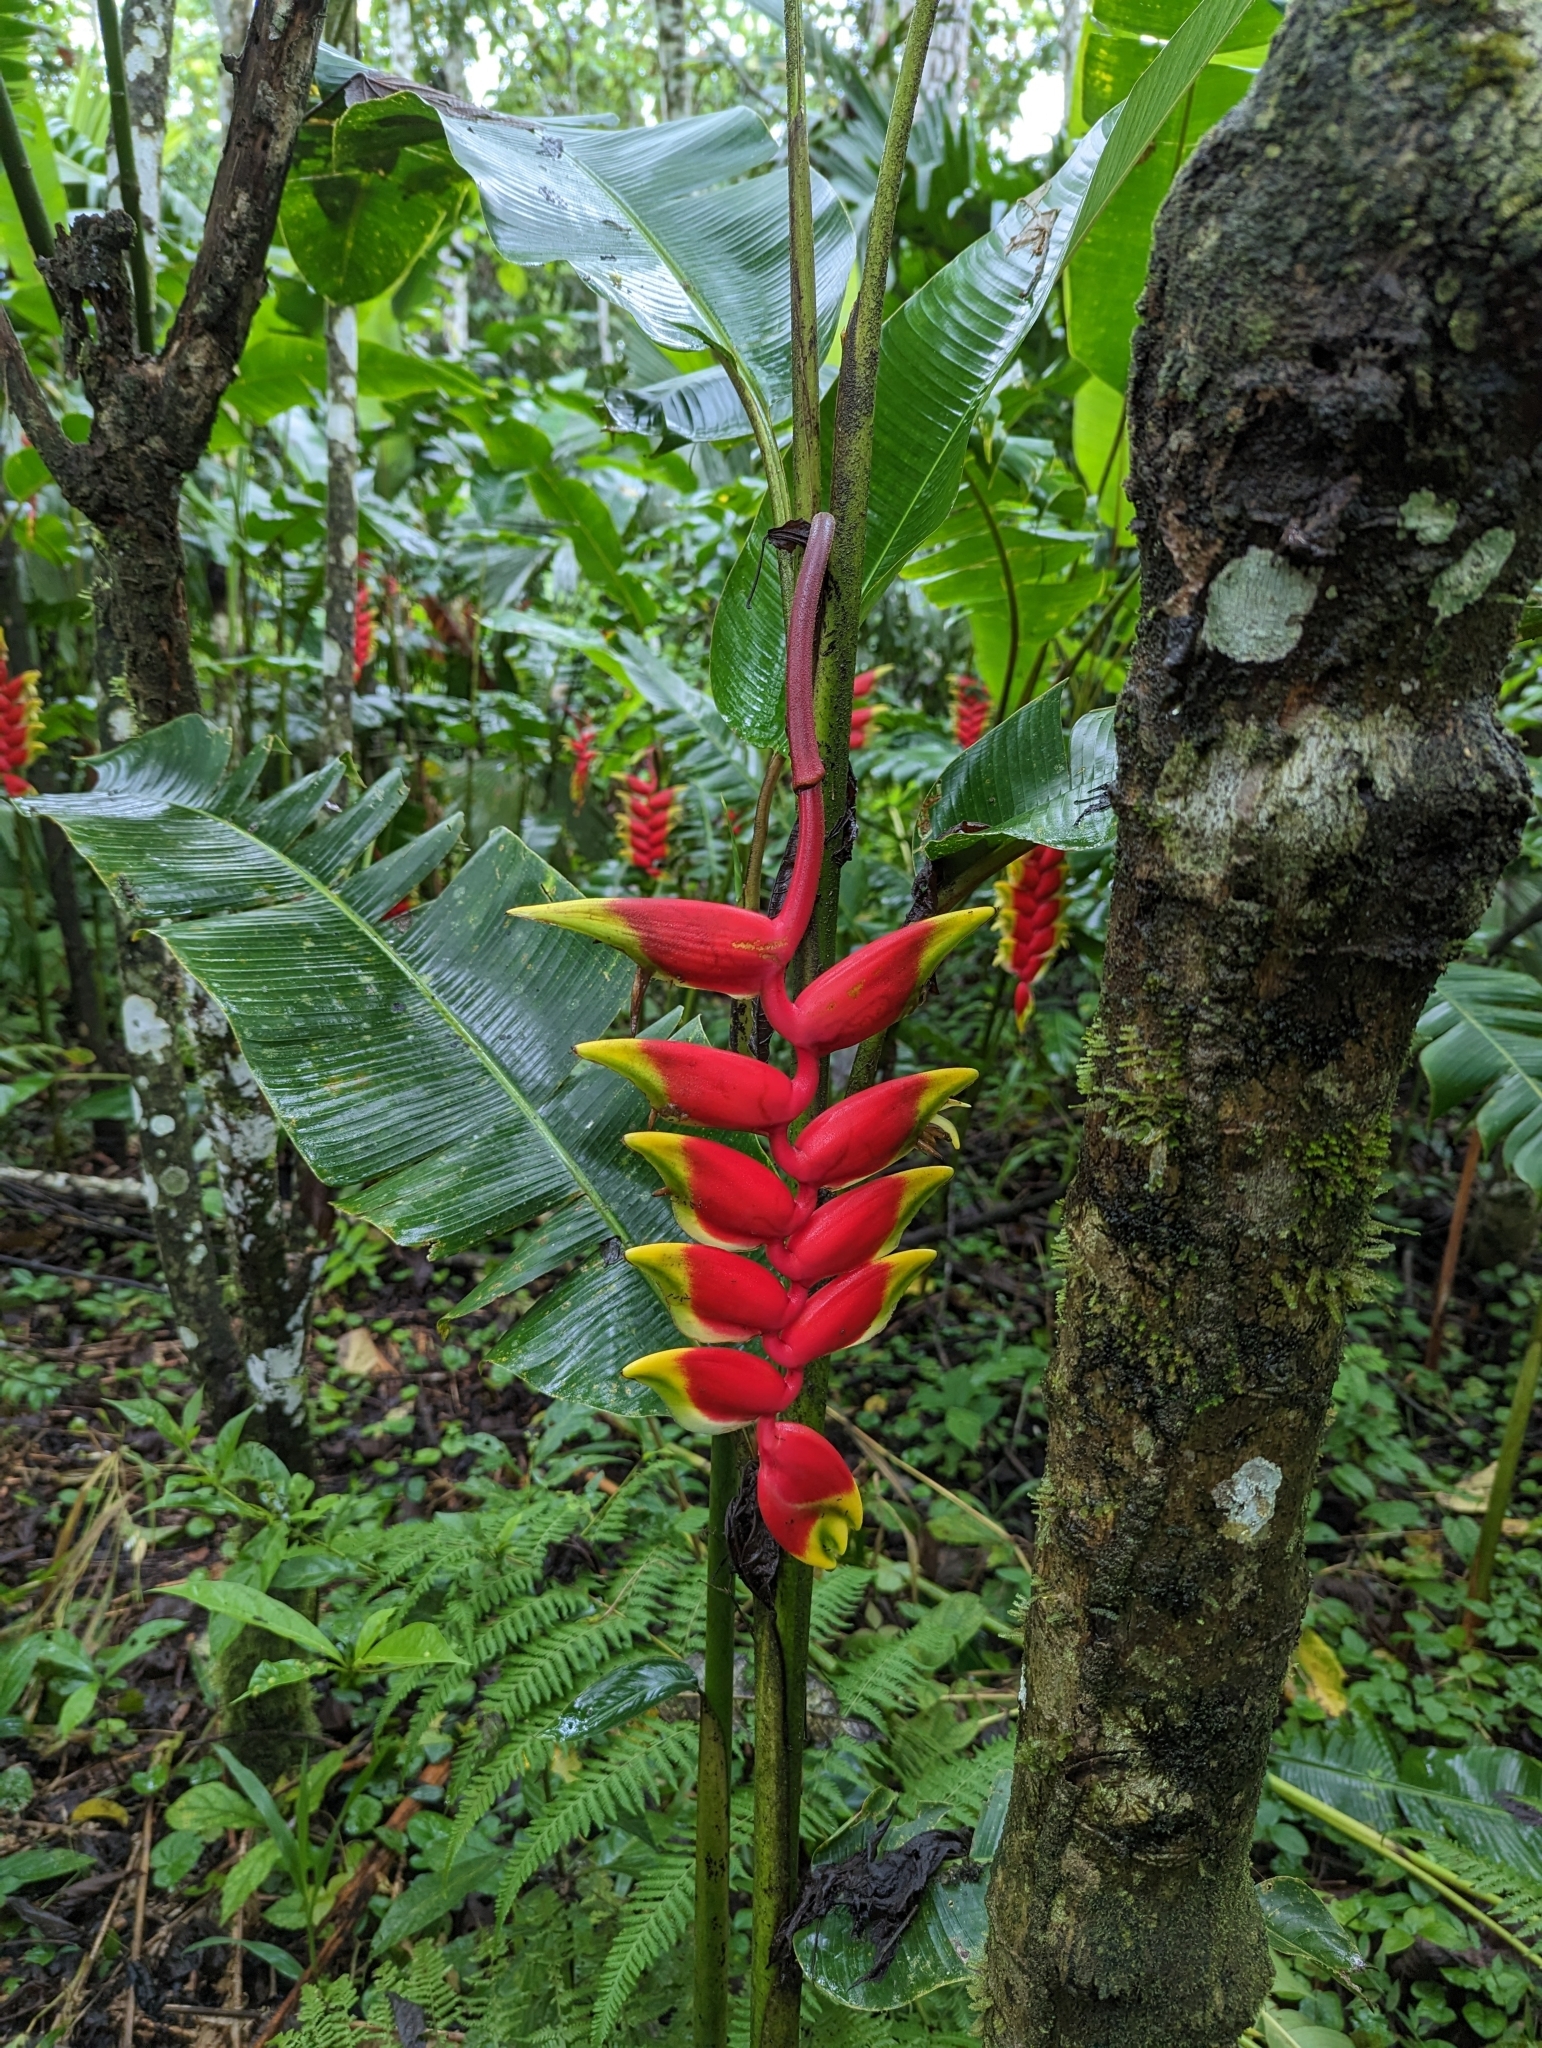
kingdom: Plantae
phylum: Tracheophyta
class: Liliopsida
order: Zingiberales
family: Heliconiaceae
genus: Heliconia
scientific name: Heliconia rostrata
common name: False bird of paradise
